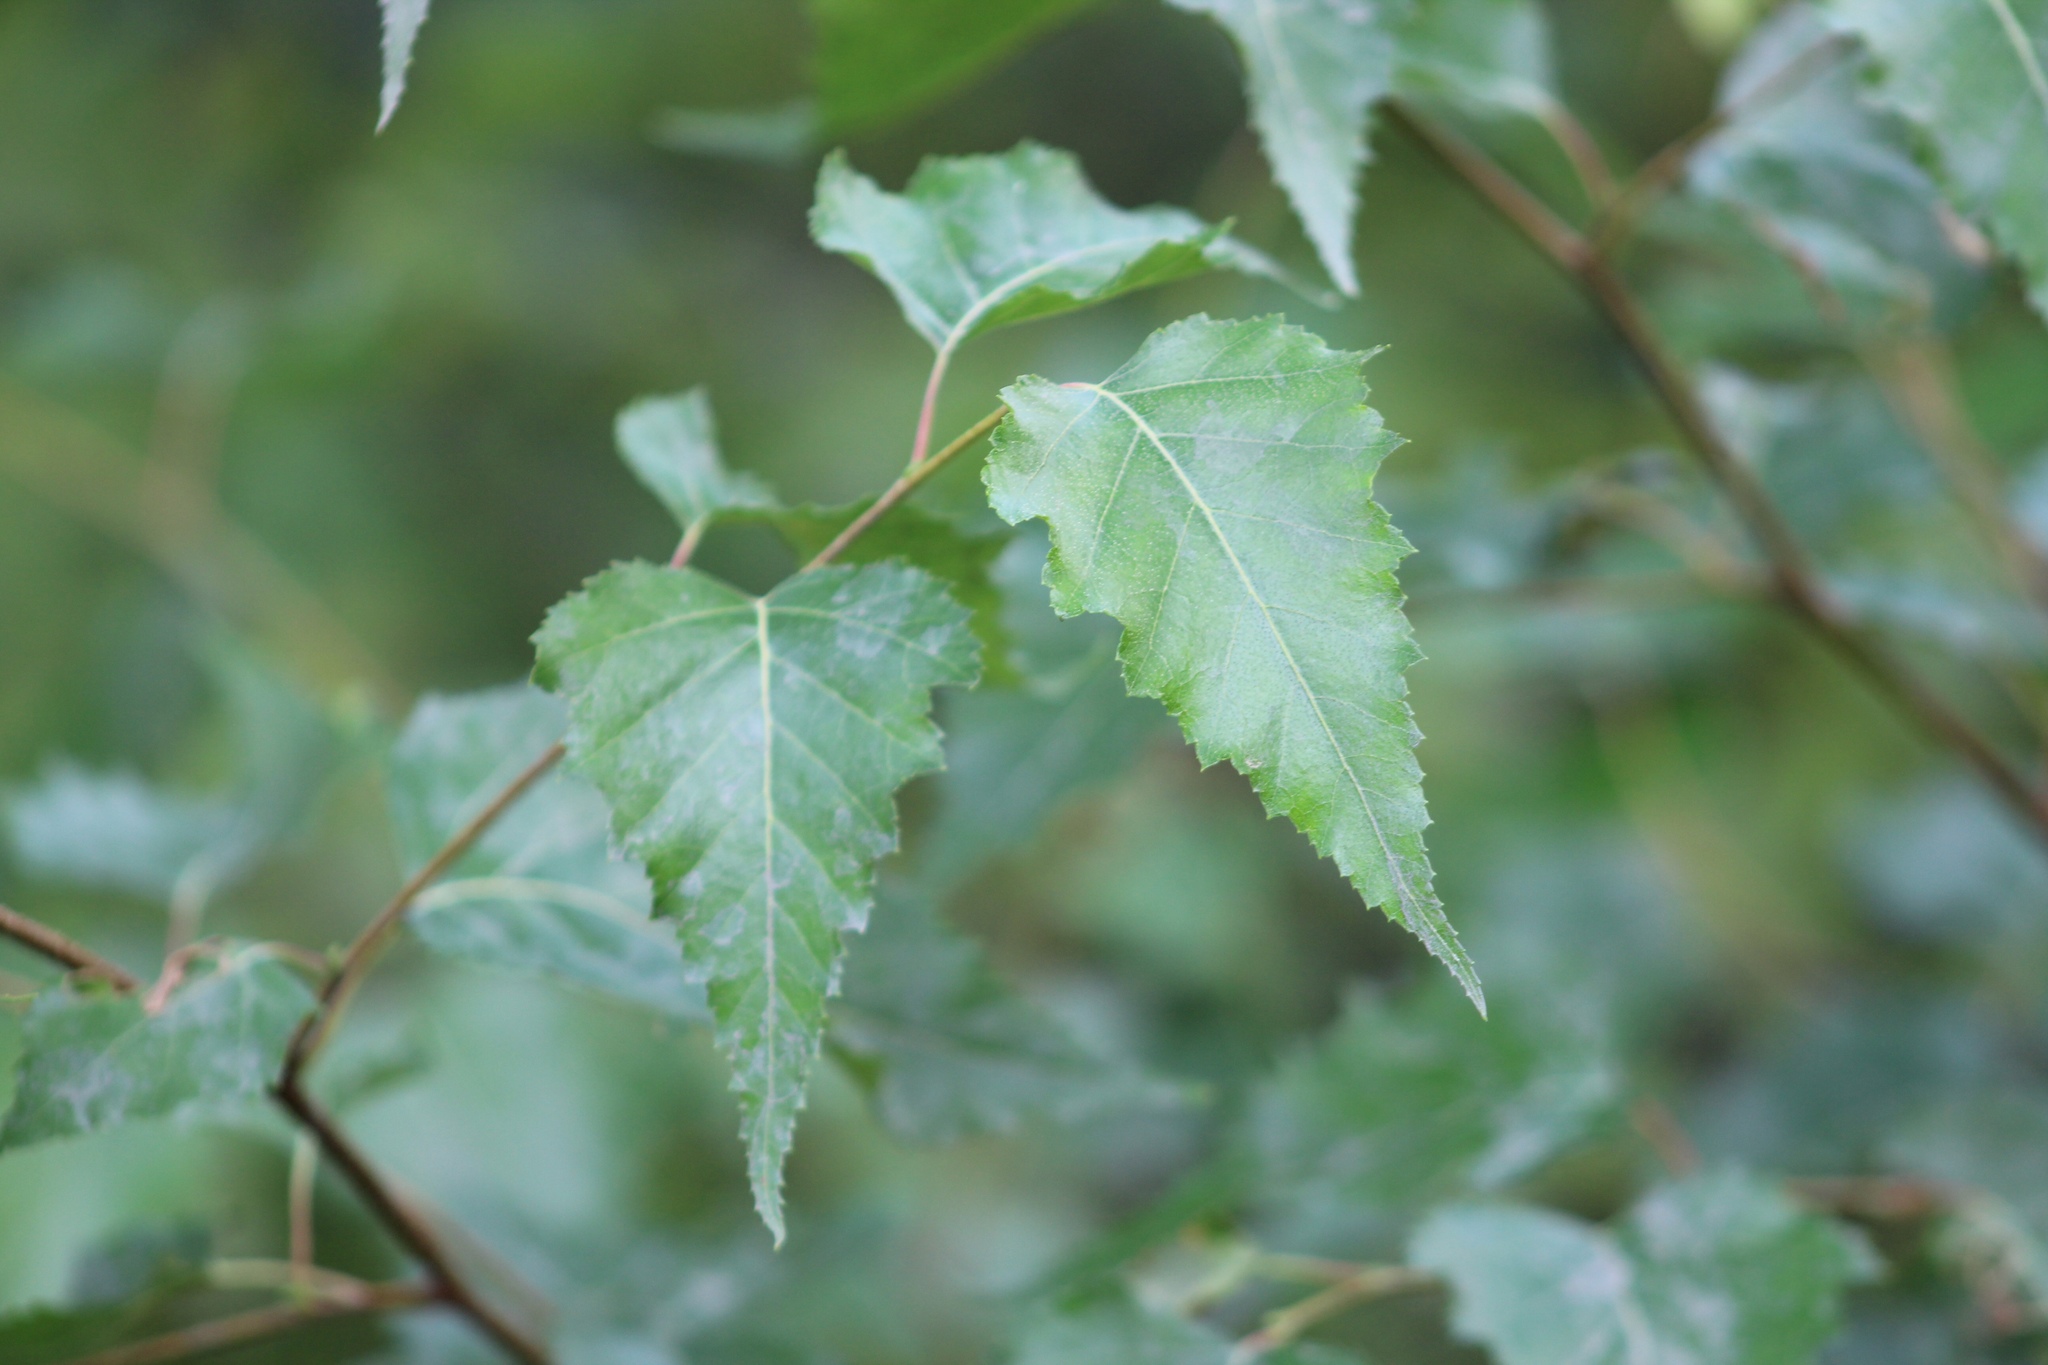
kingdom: Plantae
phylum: Tracheophyta
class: Magnoliopsida
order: Fagales
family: Betulaceae
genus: Betula
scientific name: Betula populifolia
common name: Fire birch
